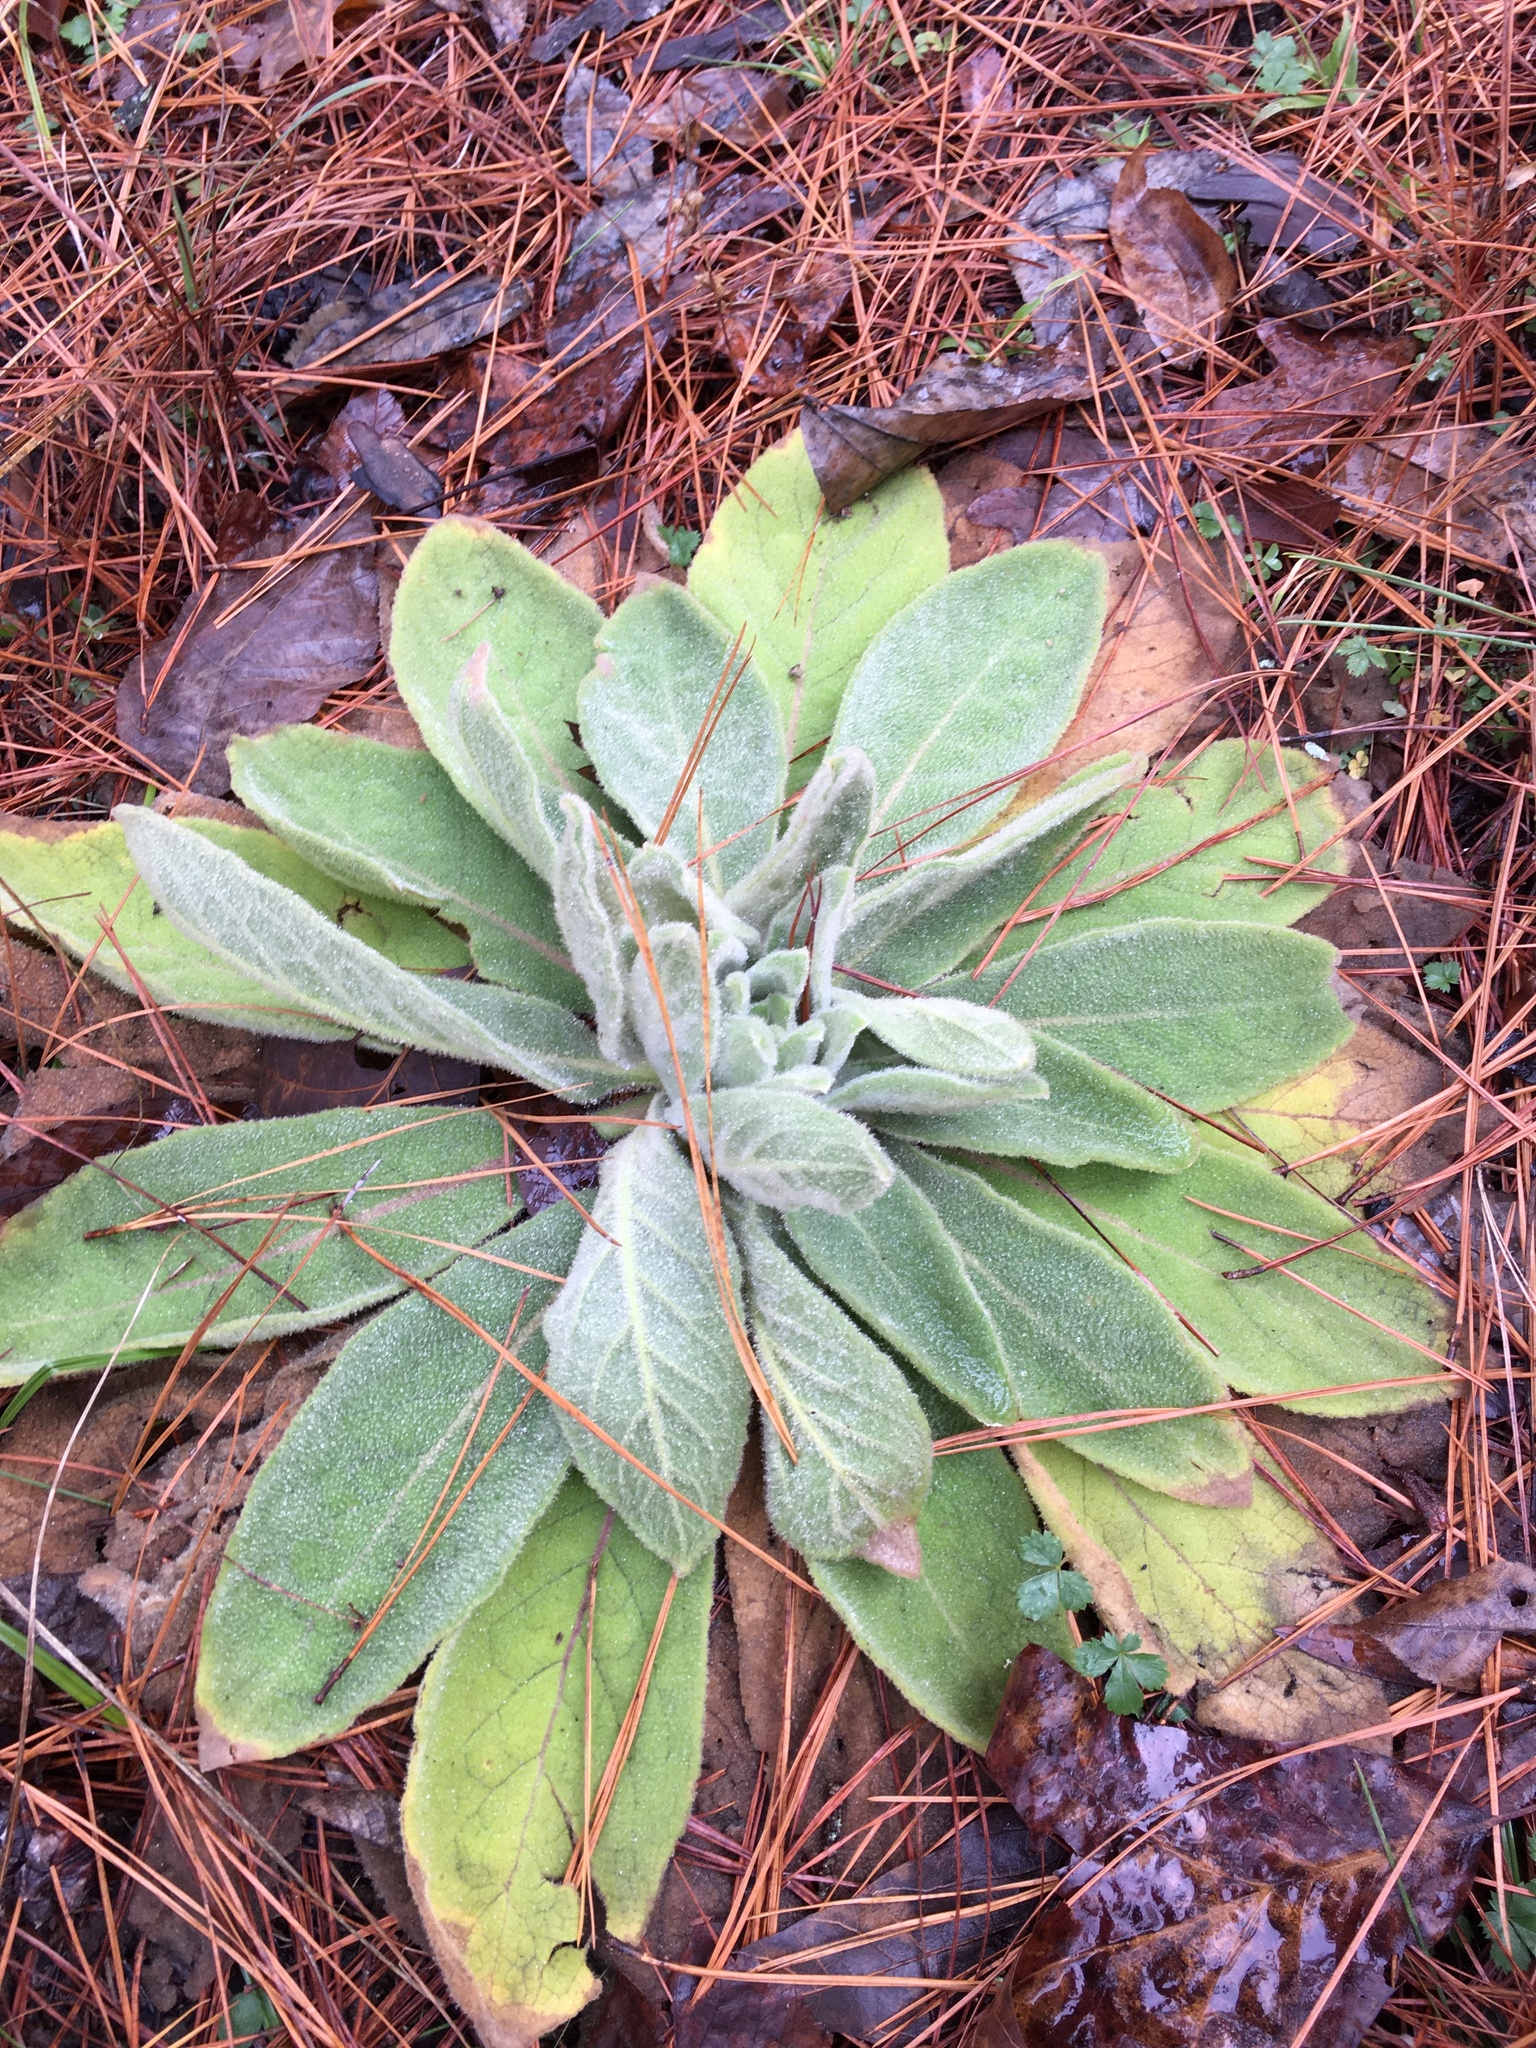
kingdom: Plantae
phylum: Tracheophyta
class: Magnoliopsida
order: Lamiales
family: Scrophulariaceae
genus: Verbascum
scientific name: Verbascum thapsus
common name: Common mullein
